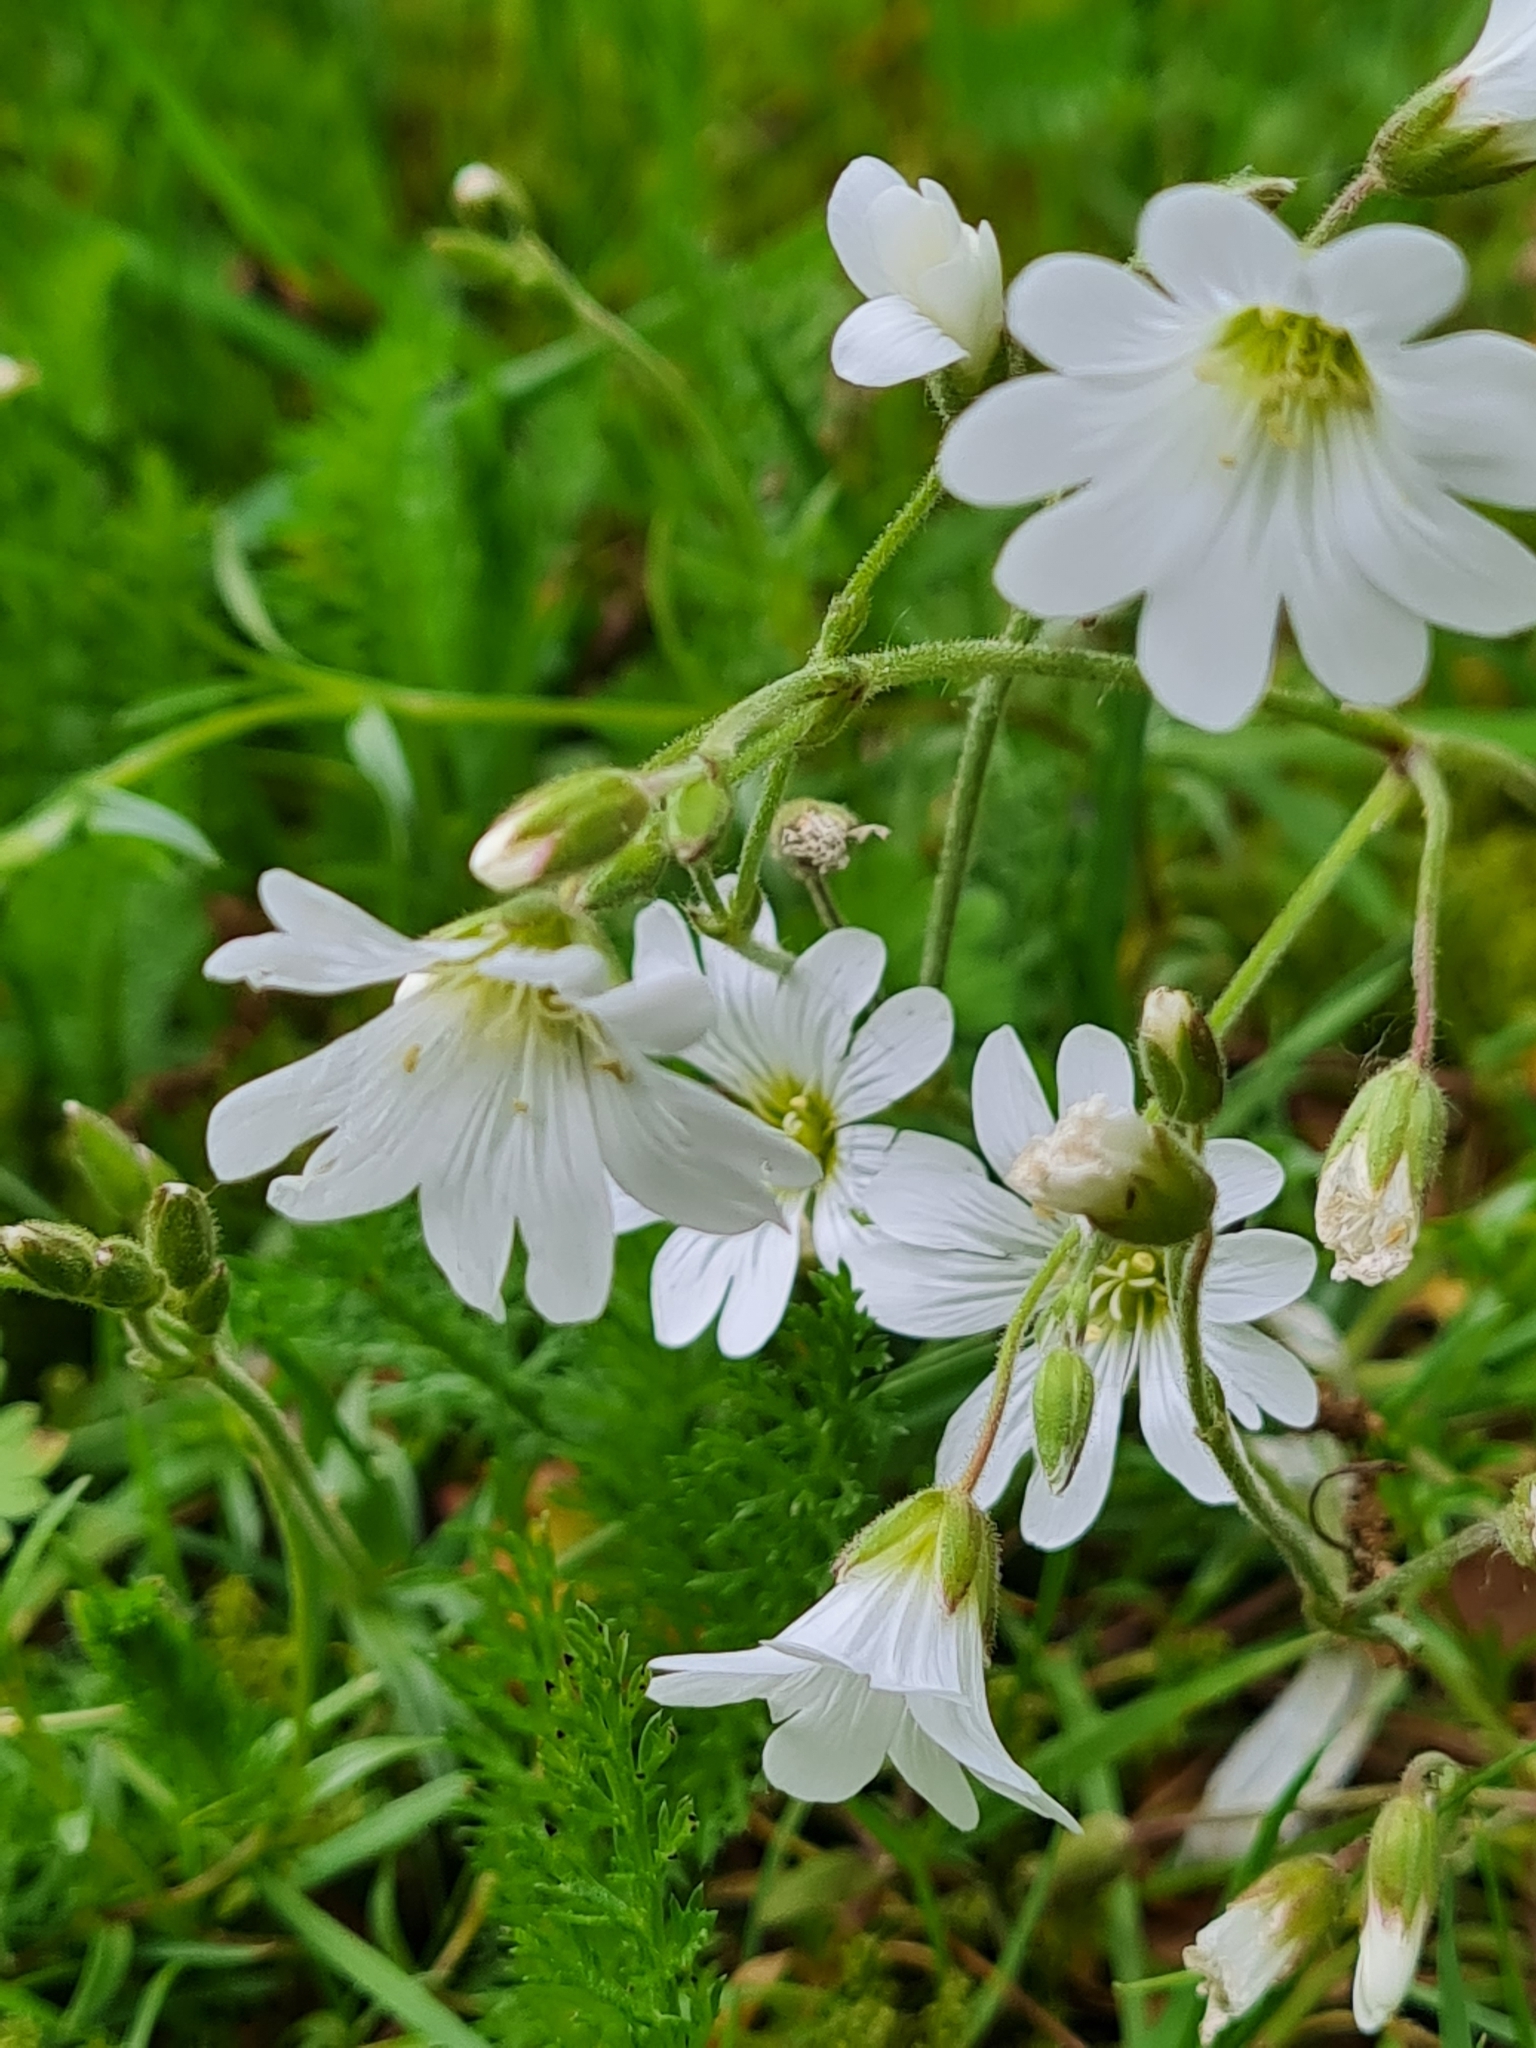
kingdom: Plantae
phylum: Tracheophyta
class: Magnoliopsida
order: Caryophyllales
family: Caryophyllaceae
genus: Cerastium
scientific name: Cerastium arvense
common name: Field mouse-ear
